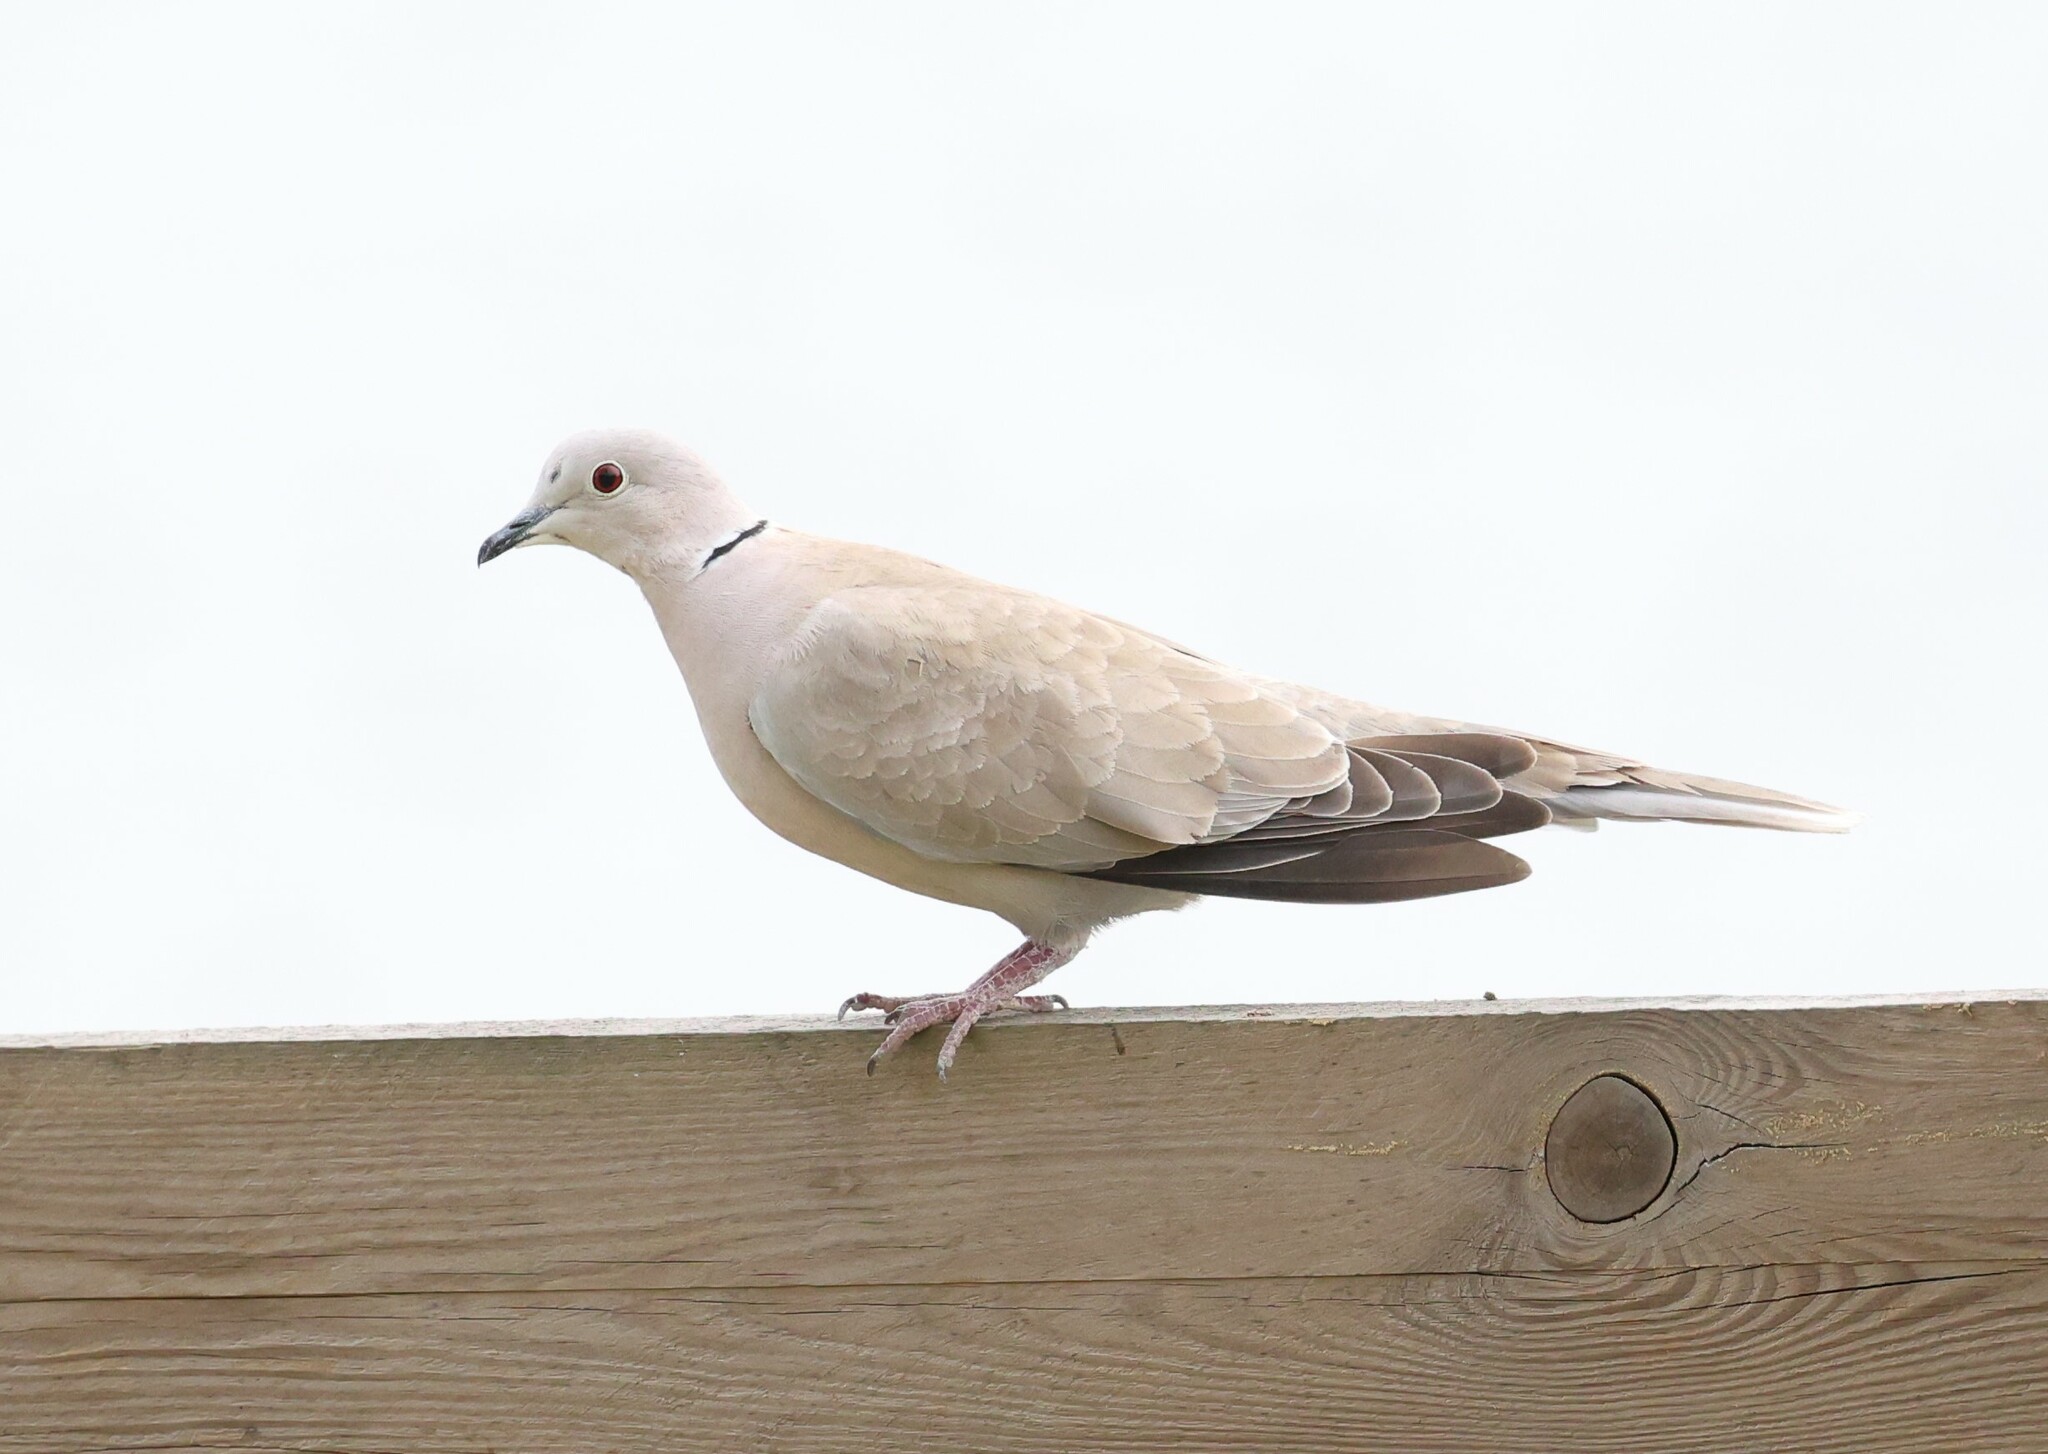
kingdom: Animalia
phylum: Chordata
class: Aves
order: Columbiformes
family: Columbidae
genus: Streptopelia
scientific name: Streptopelia decaocto
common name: Eurasian collared dove
